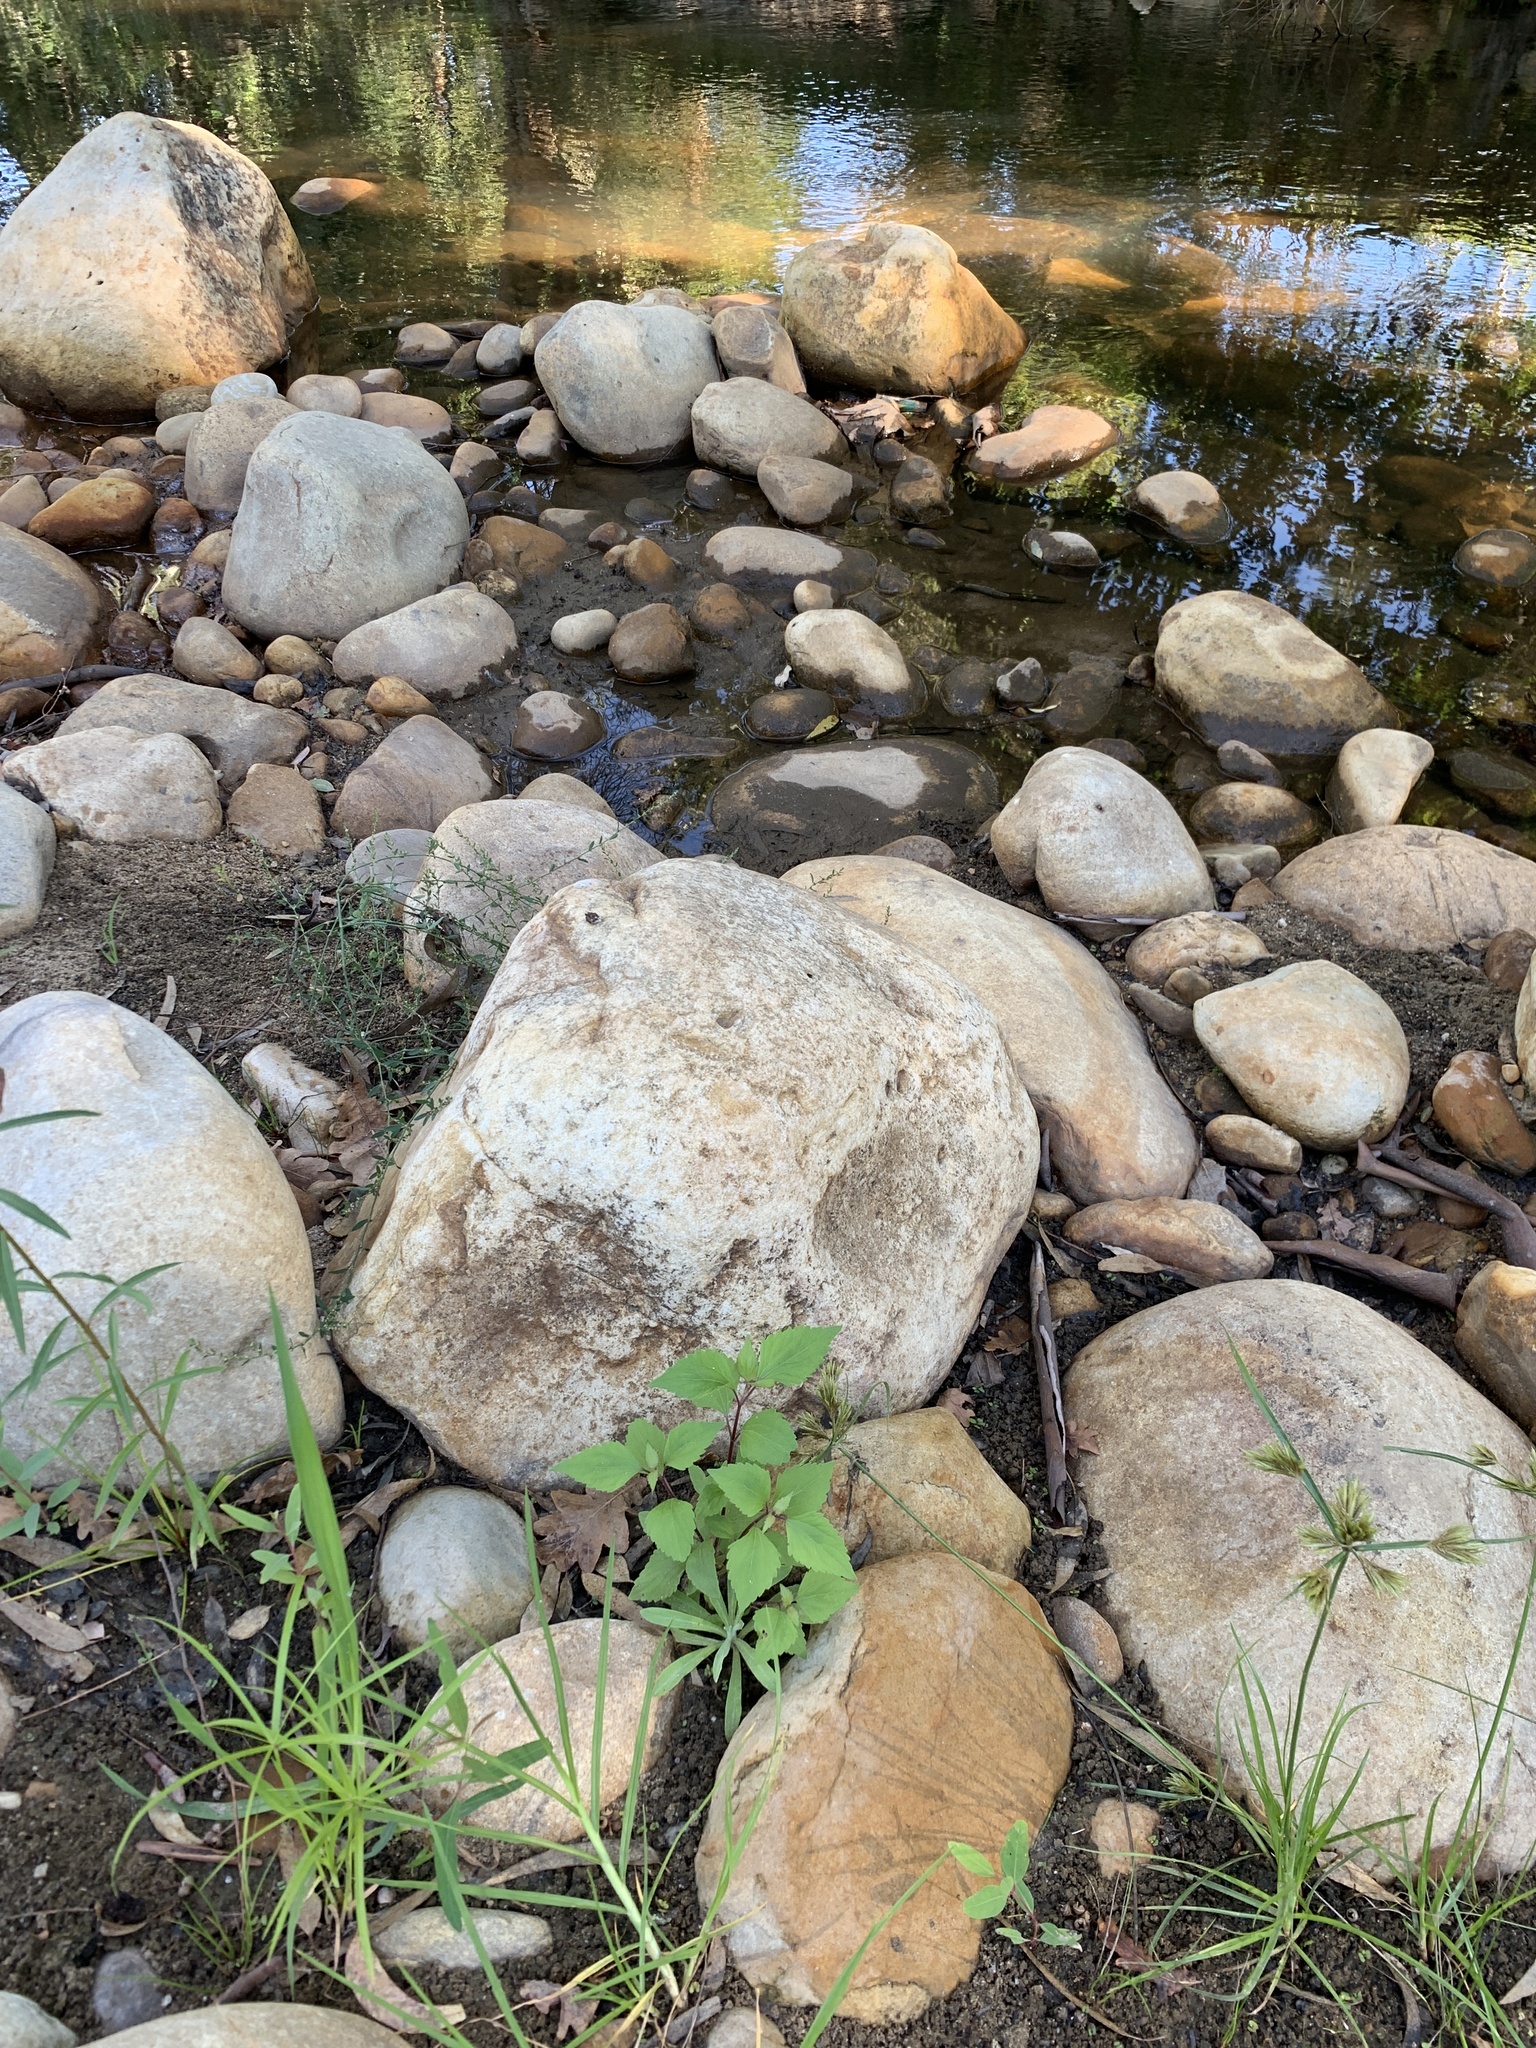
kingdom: Plantae
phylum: Tracheophyta
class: Magnoliopsida
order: Asterales
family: Asteraceae
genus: Ageratina
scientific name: Ageratina adenophora
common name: Sticky snakeroot
